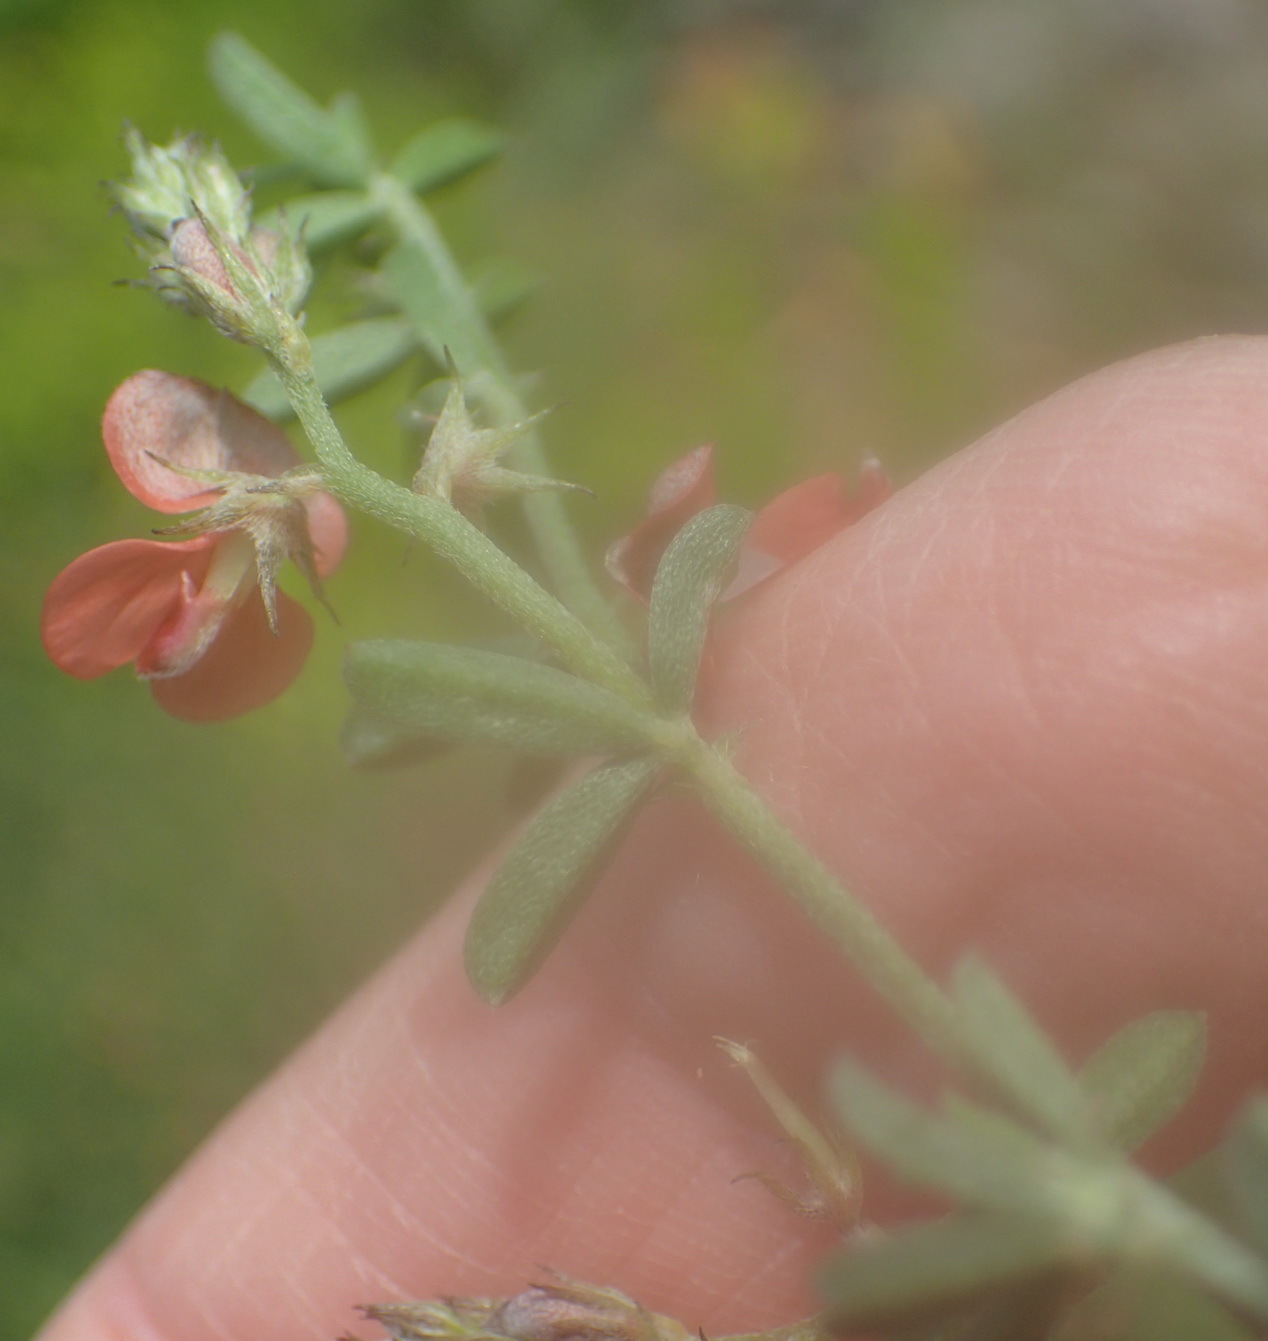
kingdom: Plantae
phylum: Tracheophyta
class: Magnoliopsida
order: Fabales
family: Fabaceae
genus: Indigofera
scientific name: Indigofera priorii
